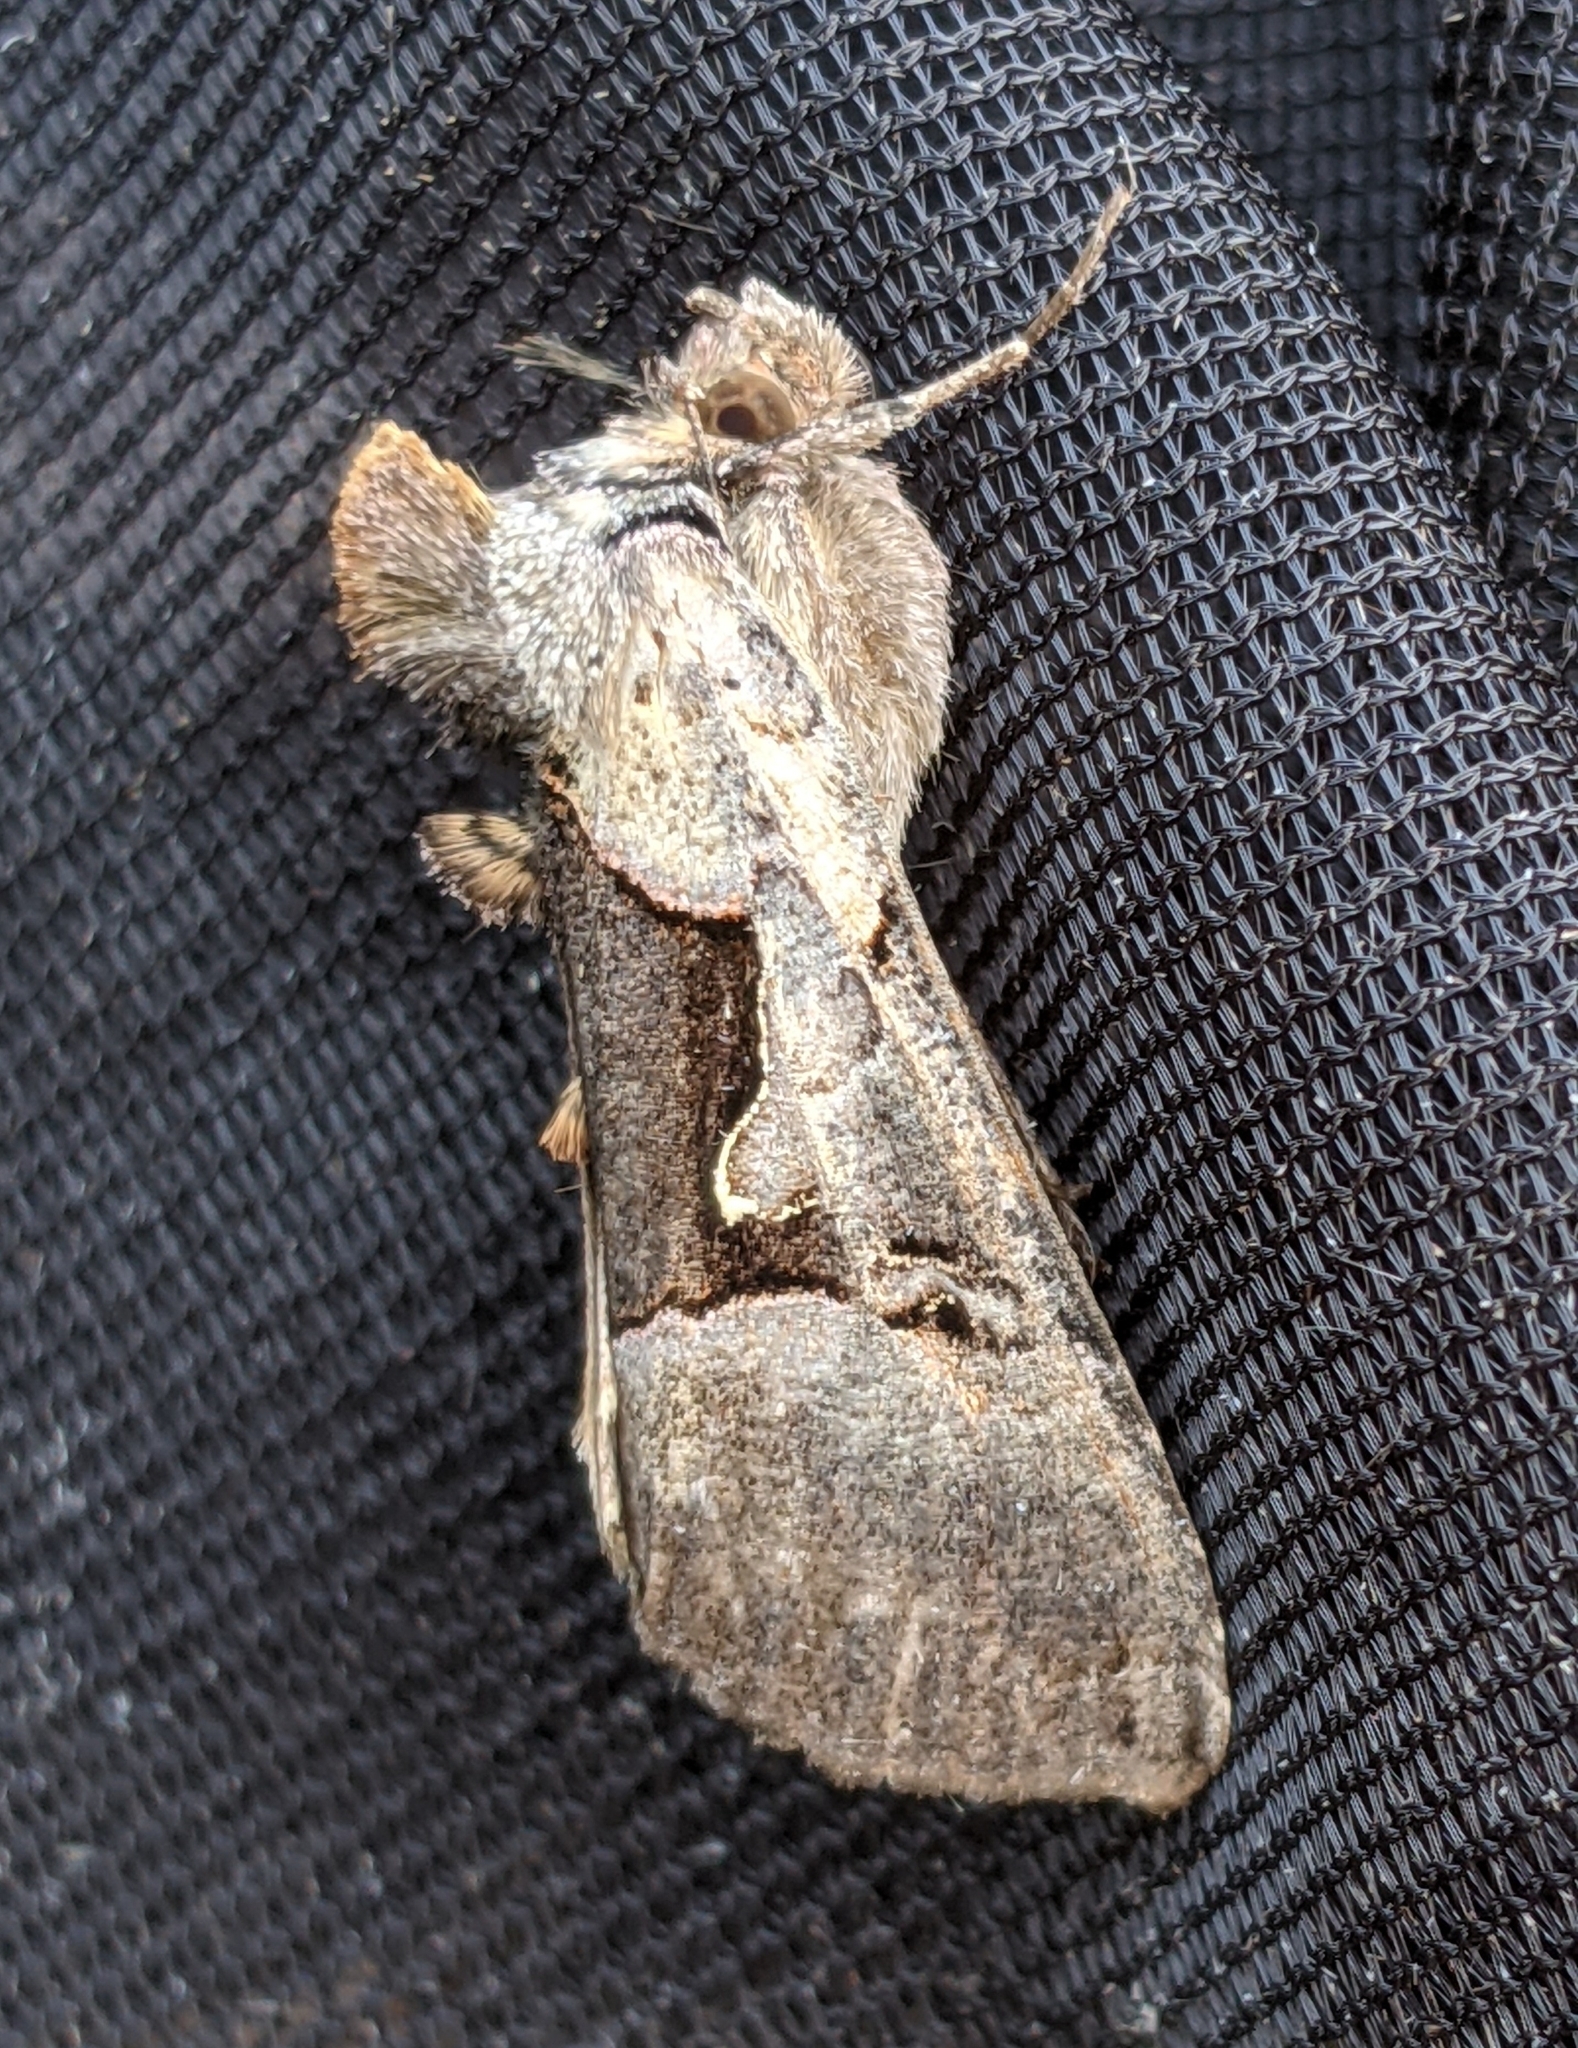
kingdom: Animalia
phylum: Arthropoda
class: Insecta
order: Lepidoptera
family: Noctuidae
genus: Autographa
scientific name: Autographa ampla
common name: Large looper moth
